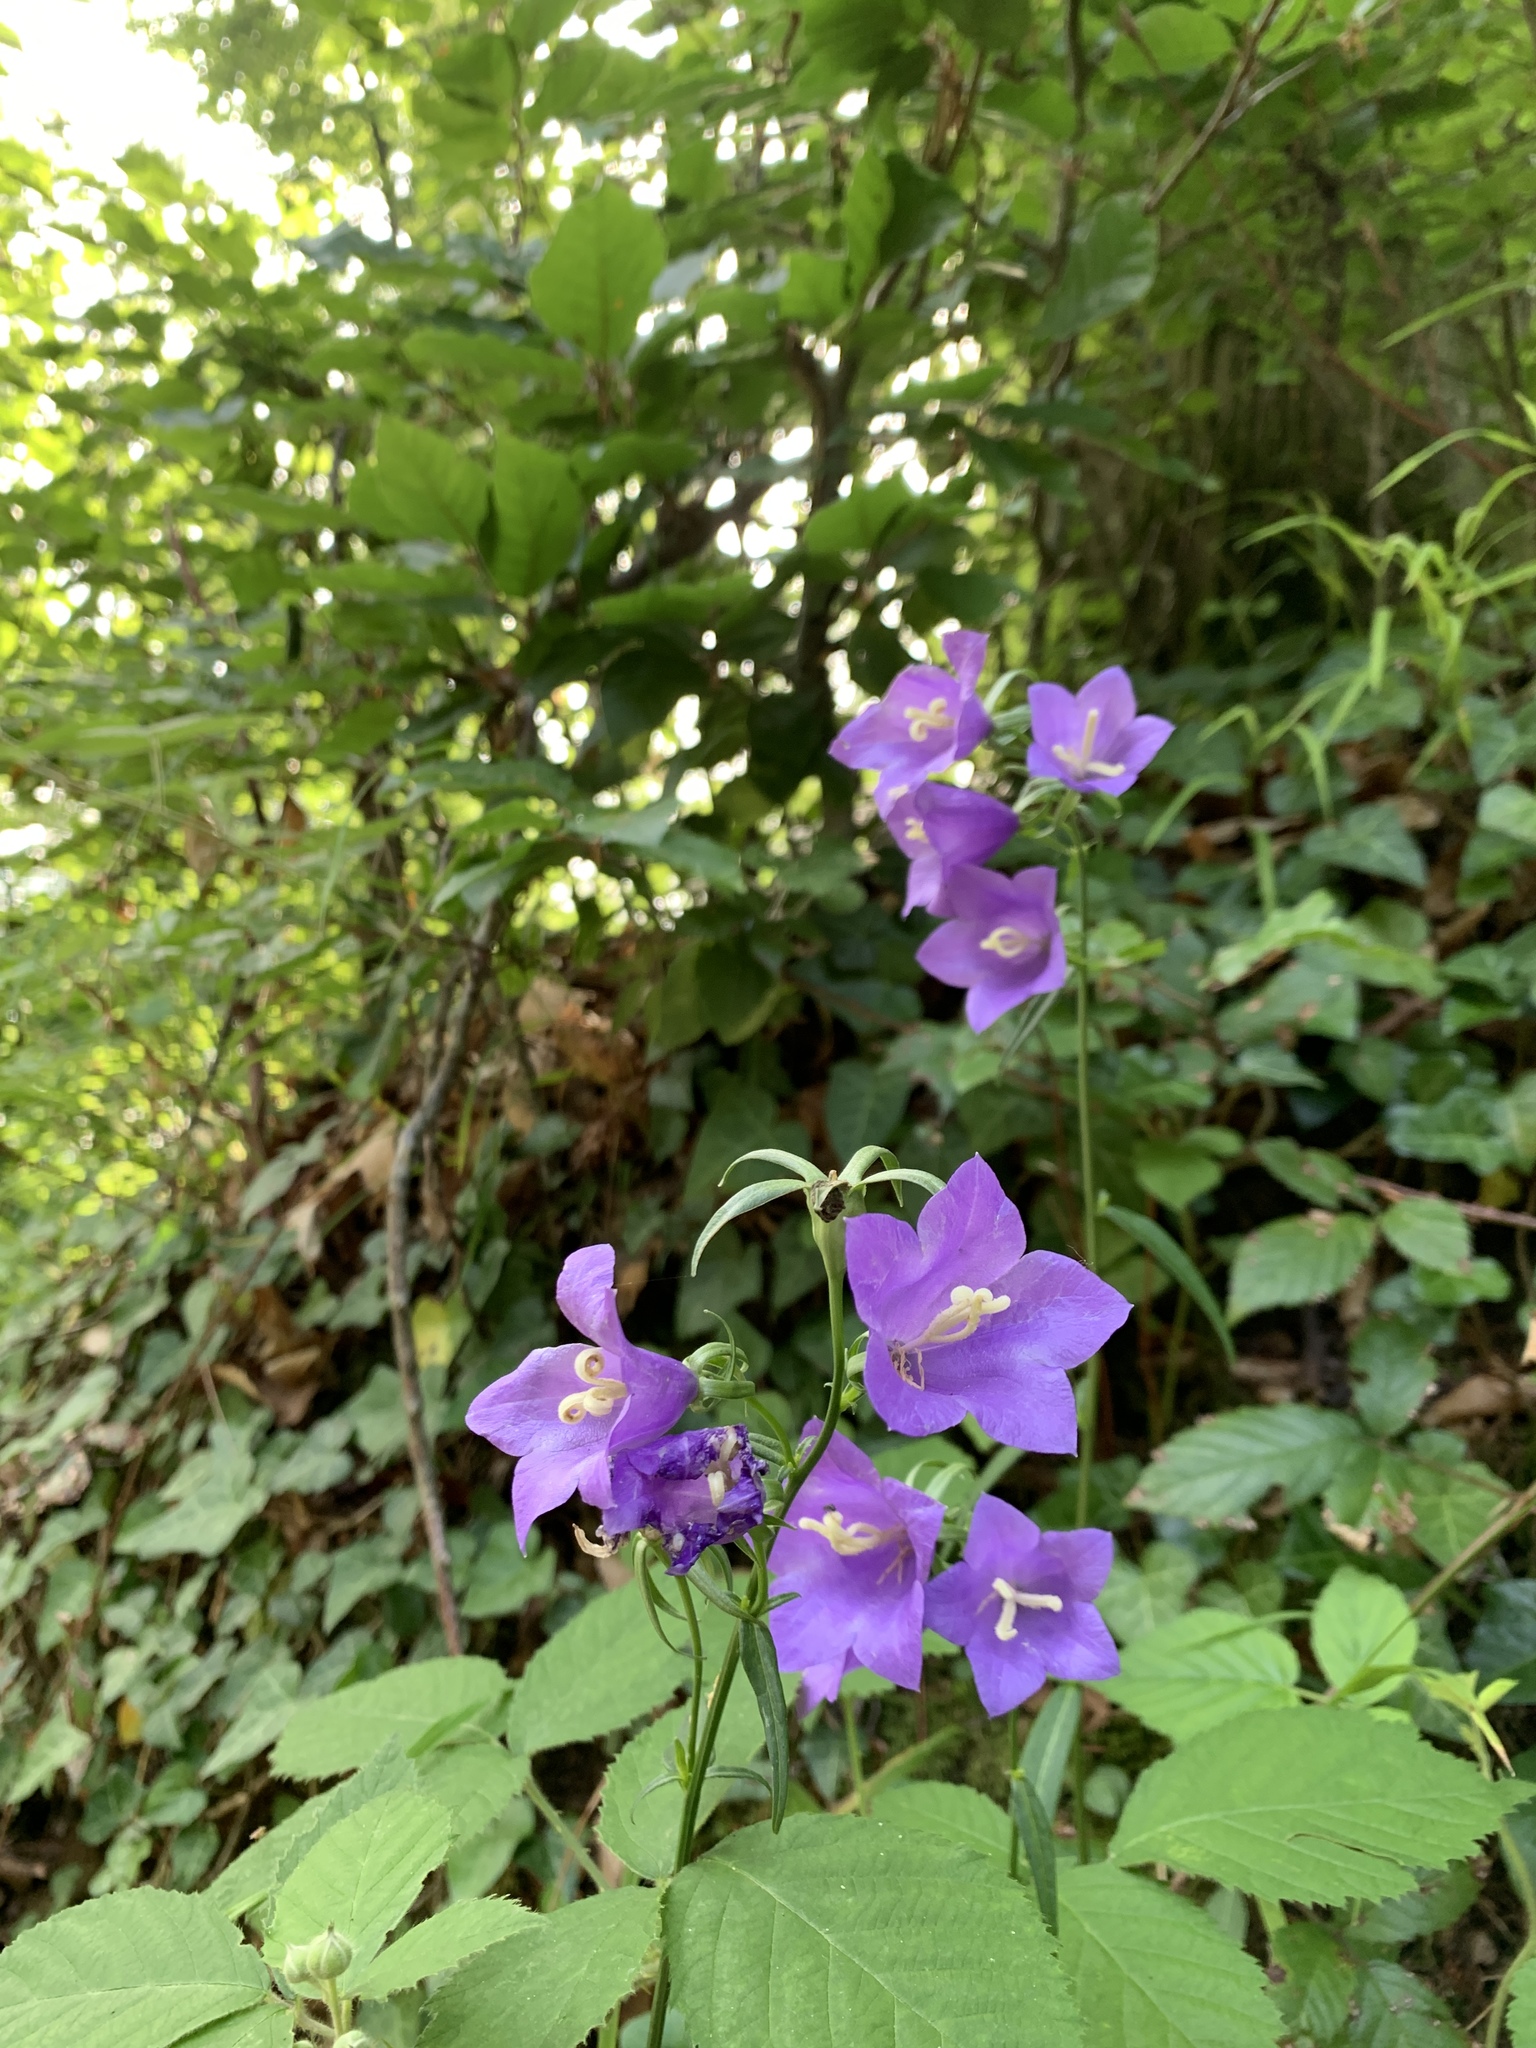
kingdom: Plantae
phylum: Tracheophyta
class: Magnoliopsida
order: Asterales
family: Campanulaceae
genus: Campanula
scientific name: Campanula persicifolia
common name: Peach-leaved bellflower
